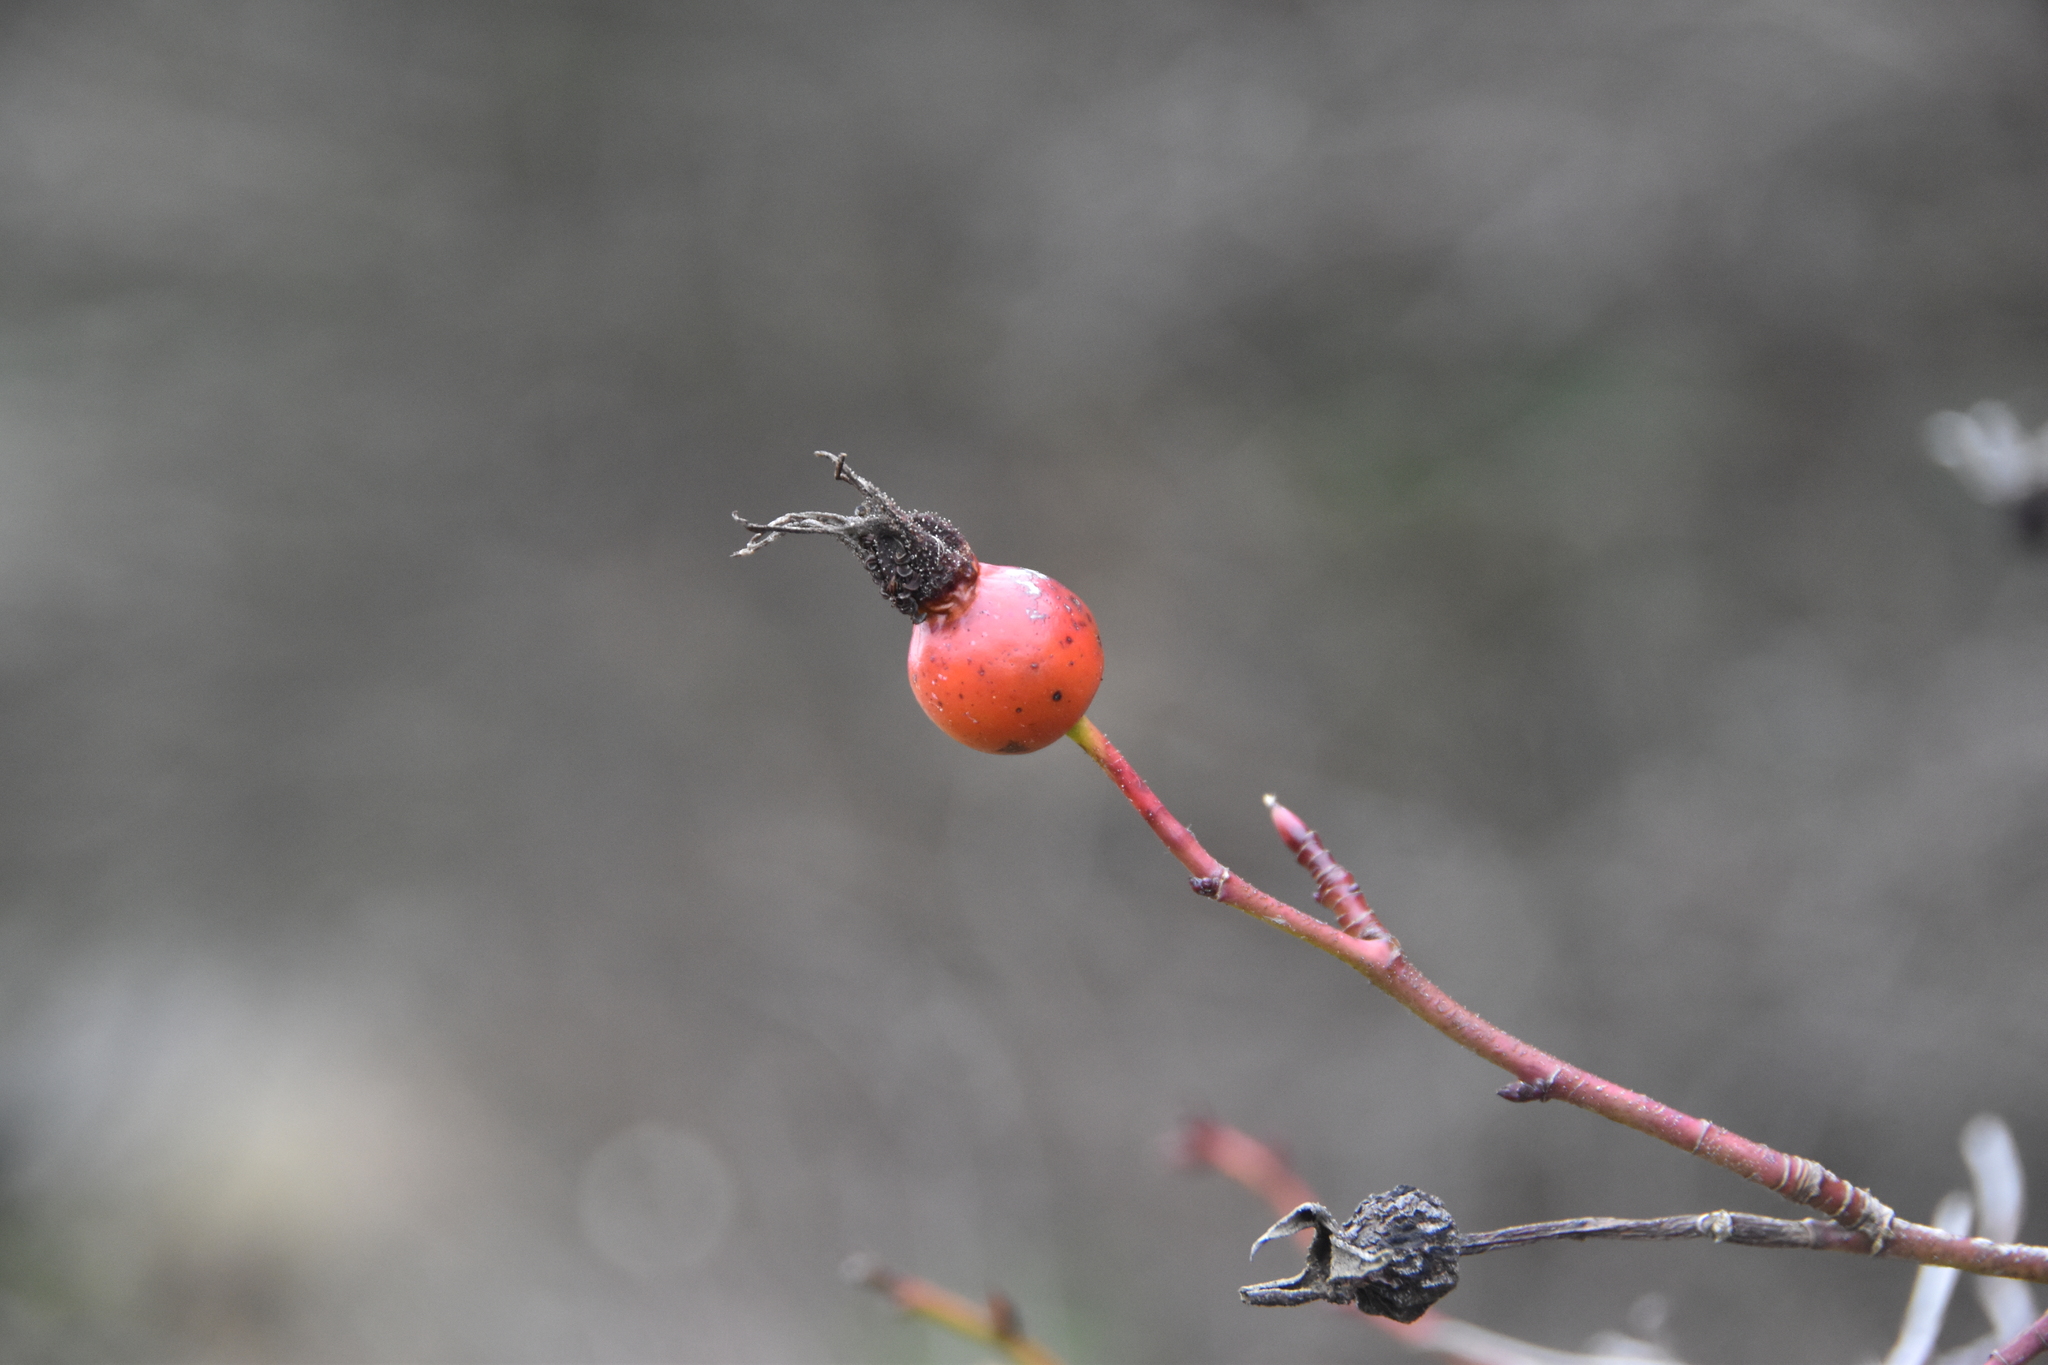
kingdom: Plantae
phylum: Tracheophyta
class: Magnoliopsida
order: Rosales
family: Rosaceae
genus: Rosa
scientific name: Rosa nutkana
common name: Nootka rose
